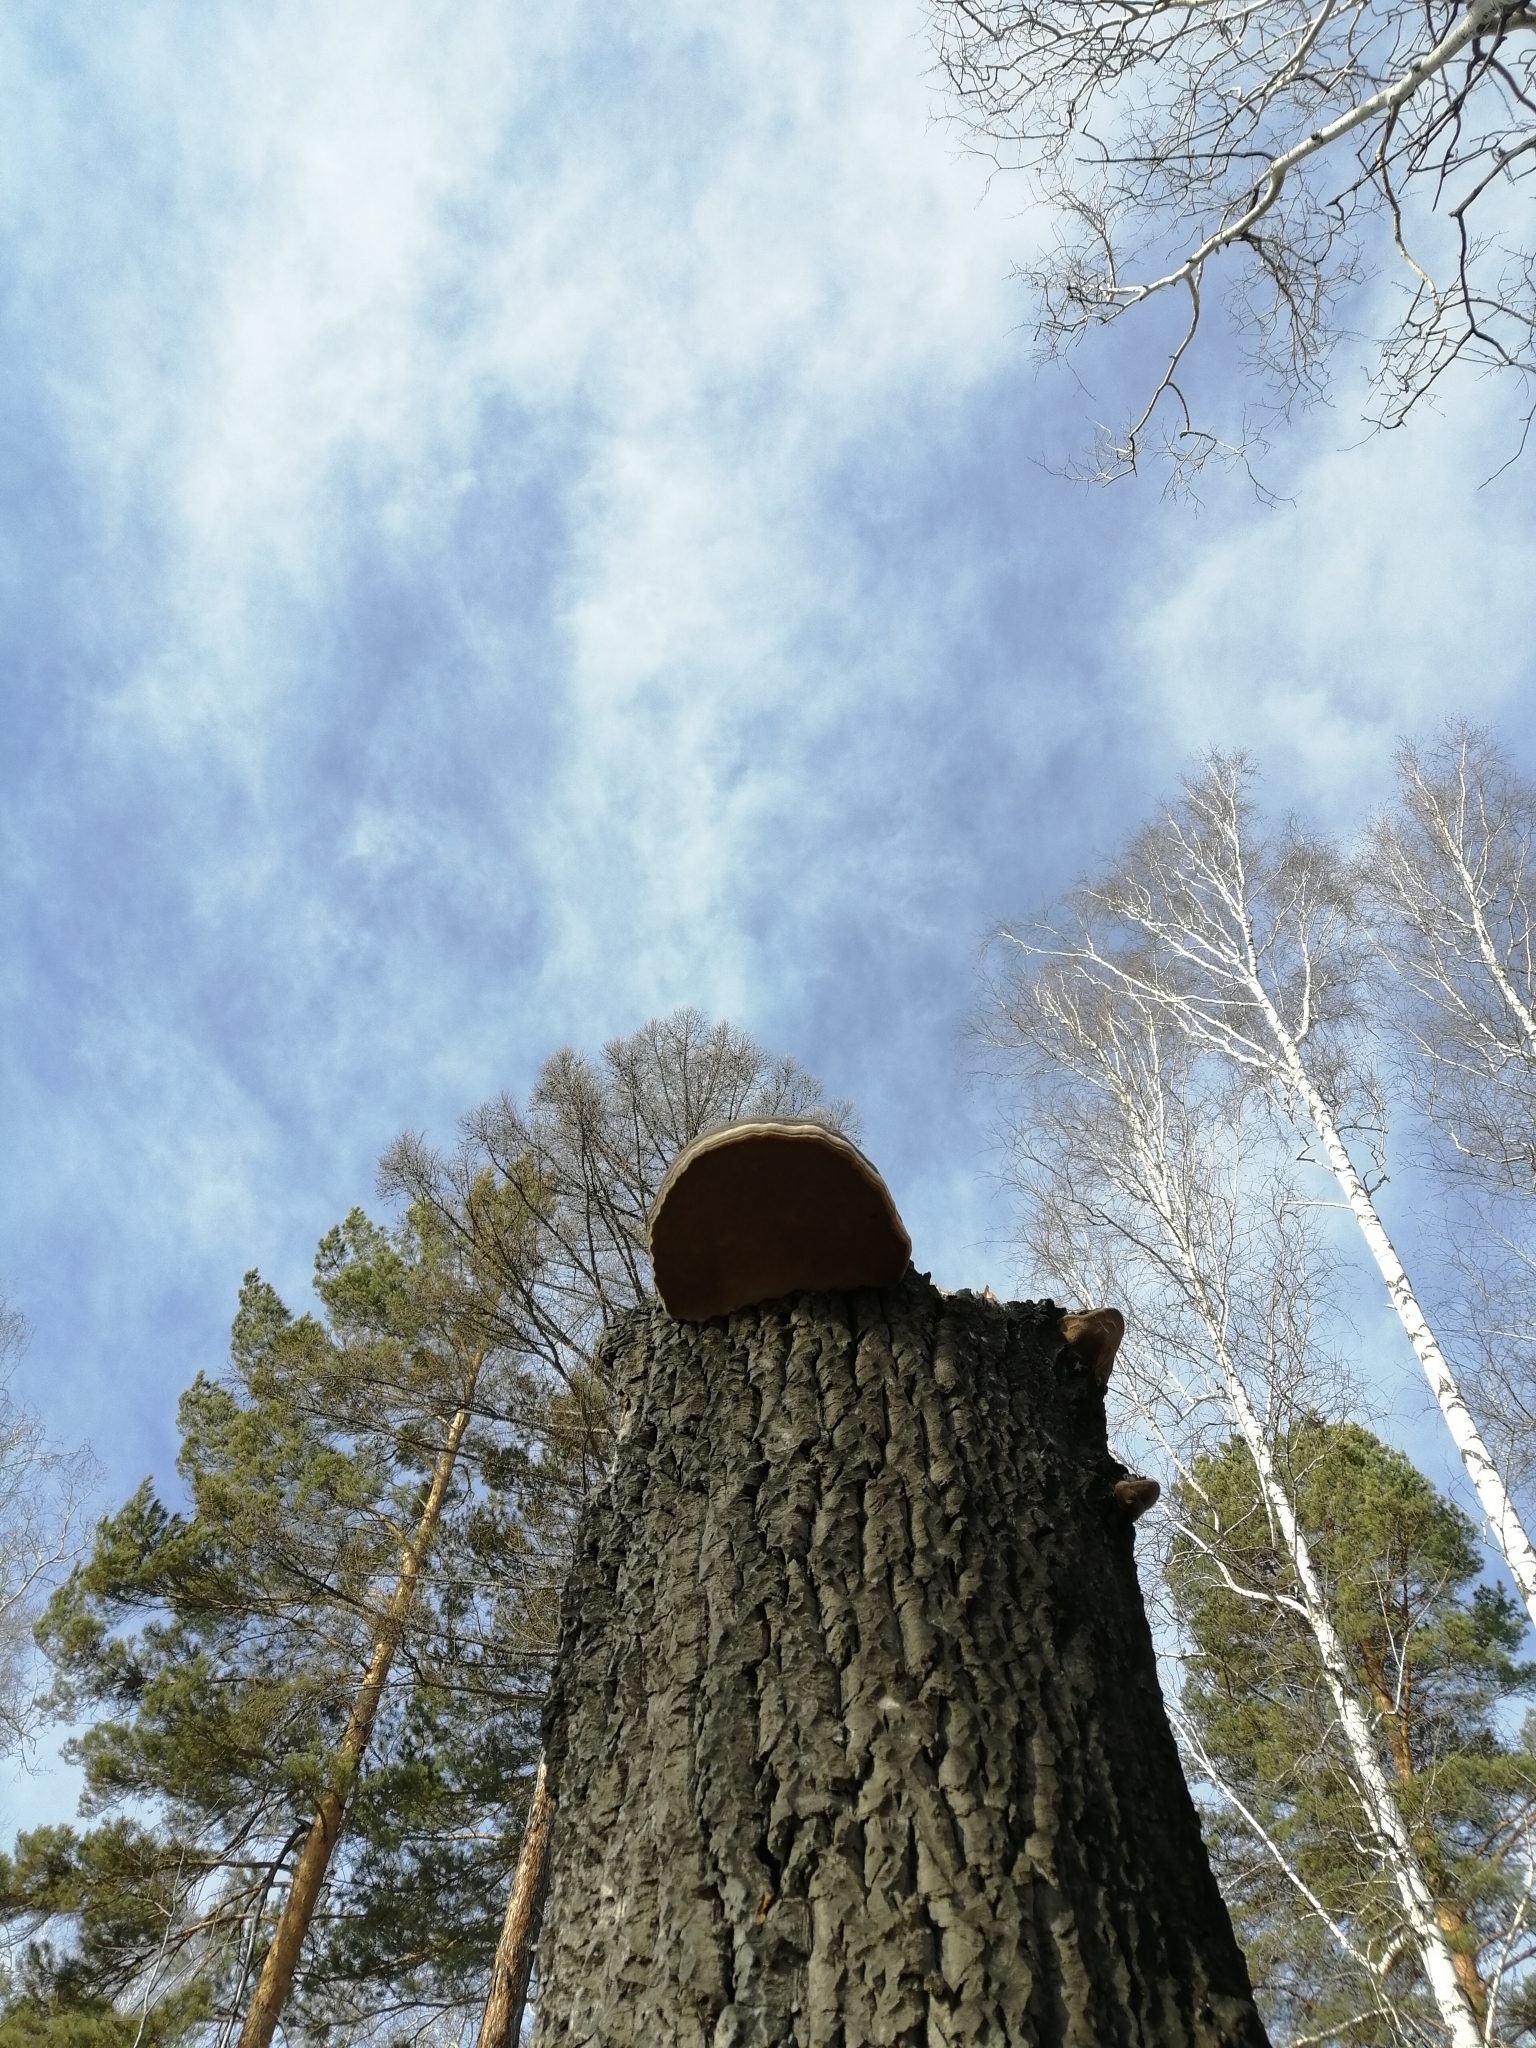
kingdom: Fungi
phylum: Basidiomycota
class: Agaricomycetes
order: Polyporales
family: Polyporaceae
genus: Fomes
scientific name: Fomes fomentarius
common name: Hoof fungus
